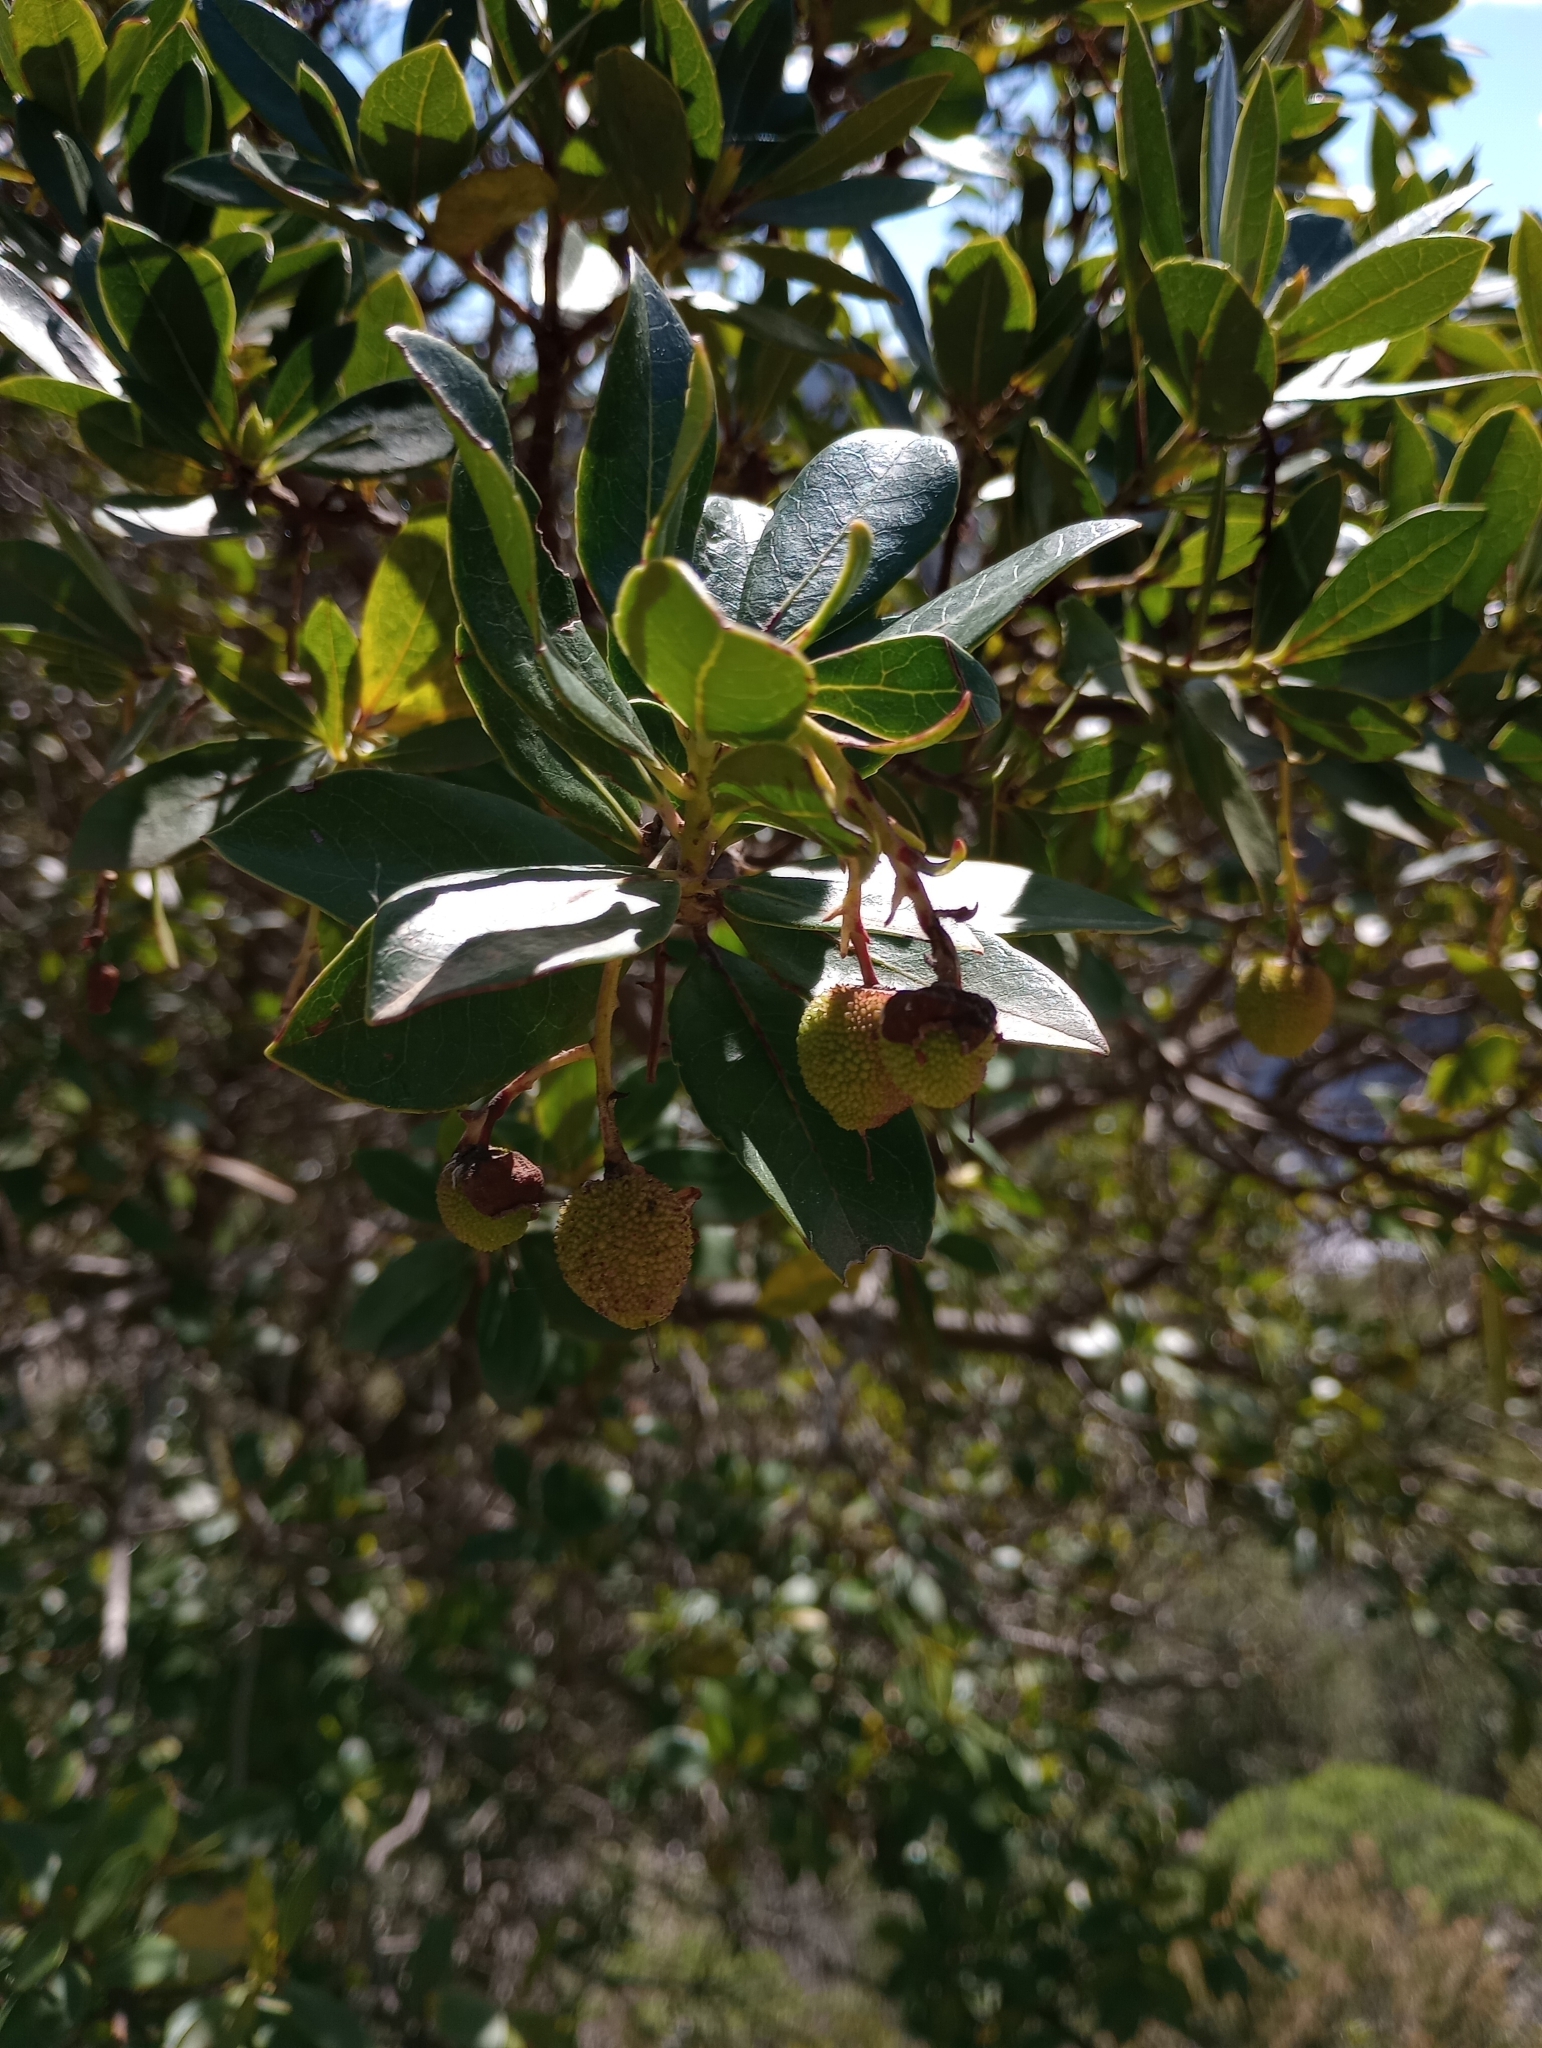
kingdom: Plantae
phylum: Tracheophyta
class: Magnoliopsida
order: Ericales
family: Ericaceae
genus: Arbutus
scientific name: Arbutus unedo
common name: Strawberry-tree
